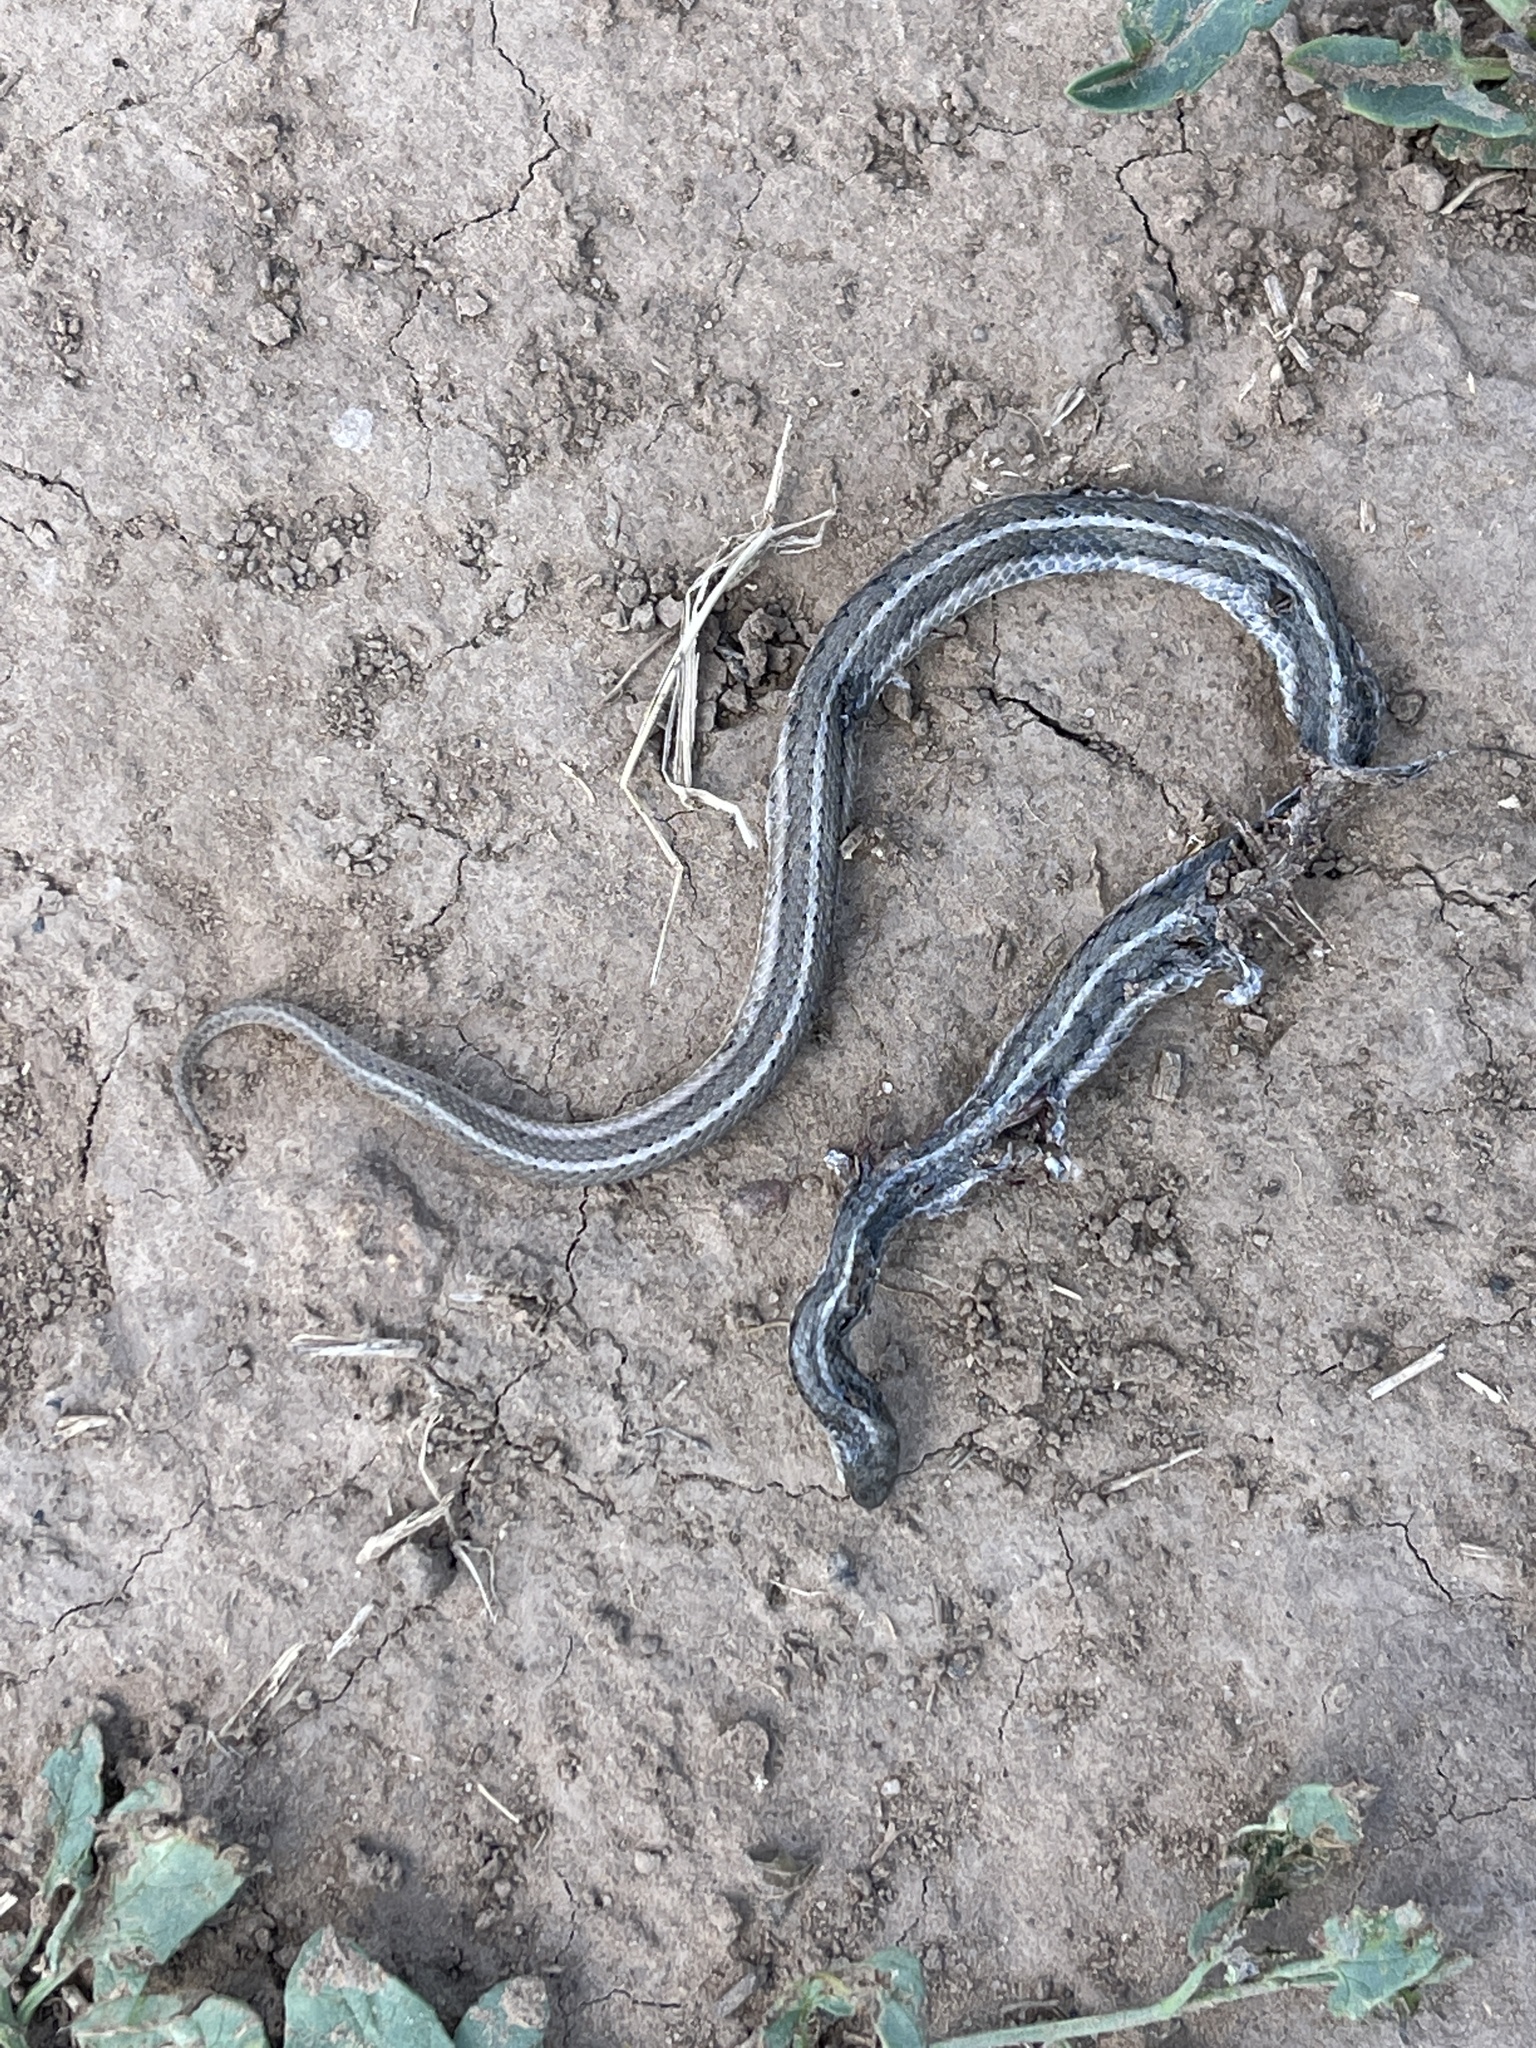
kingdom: Animalia
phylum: Chordata
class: Squamata
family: Colubridae
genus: Tropidoclonion
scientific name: Tropidoclonion lineatum
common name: Lined snake
